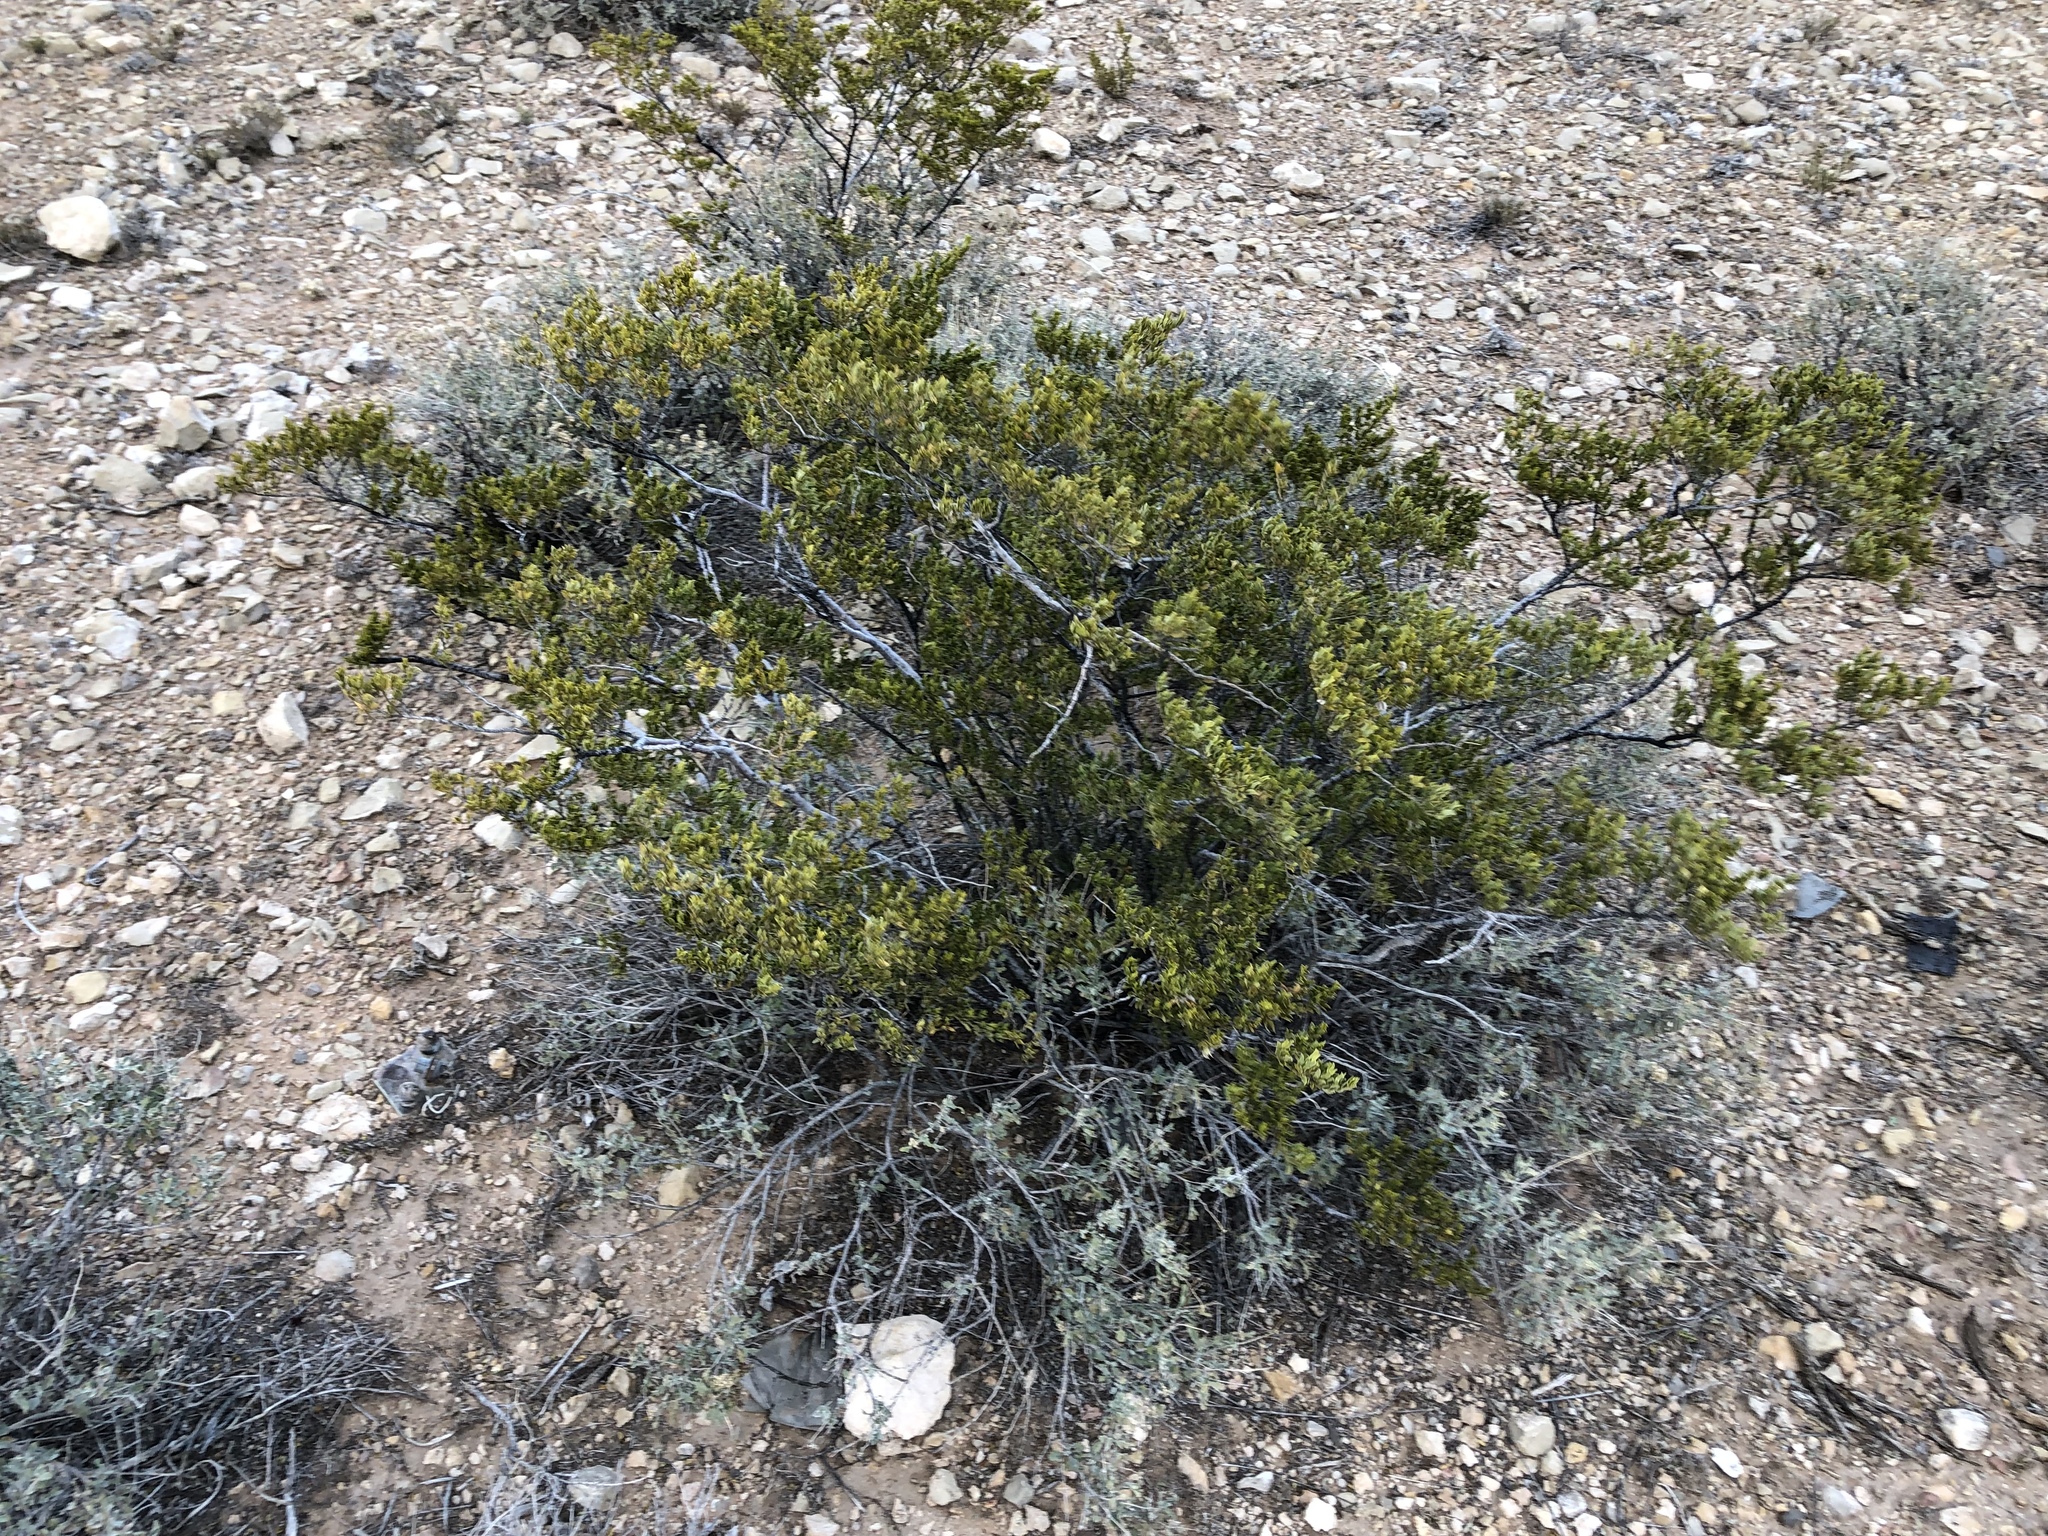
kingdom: Plantae
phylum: Tracheophyta
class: Magnoliopsida
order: Zygophyllales
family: Zygophyllaceae
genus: Larrea
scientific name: Larrea tridentata
